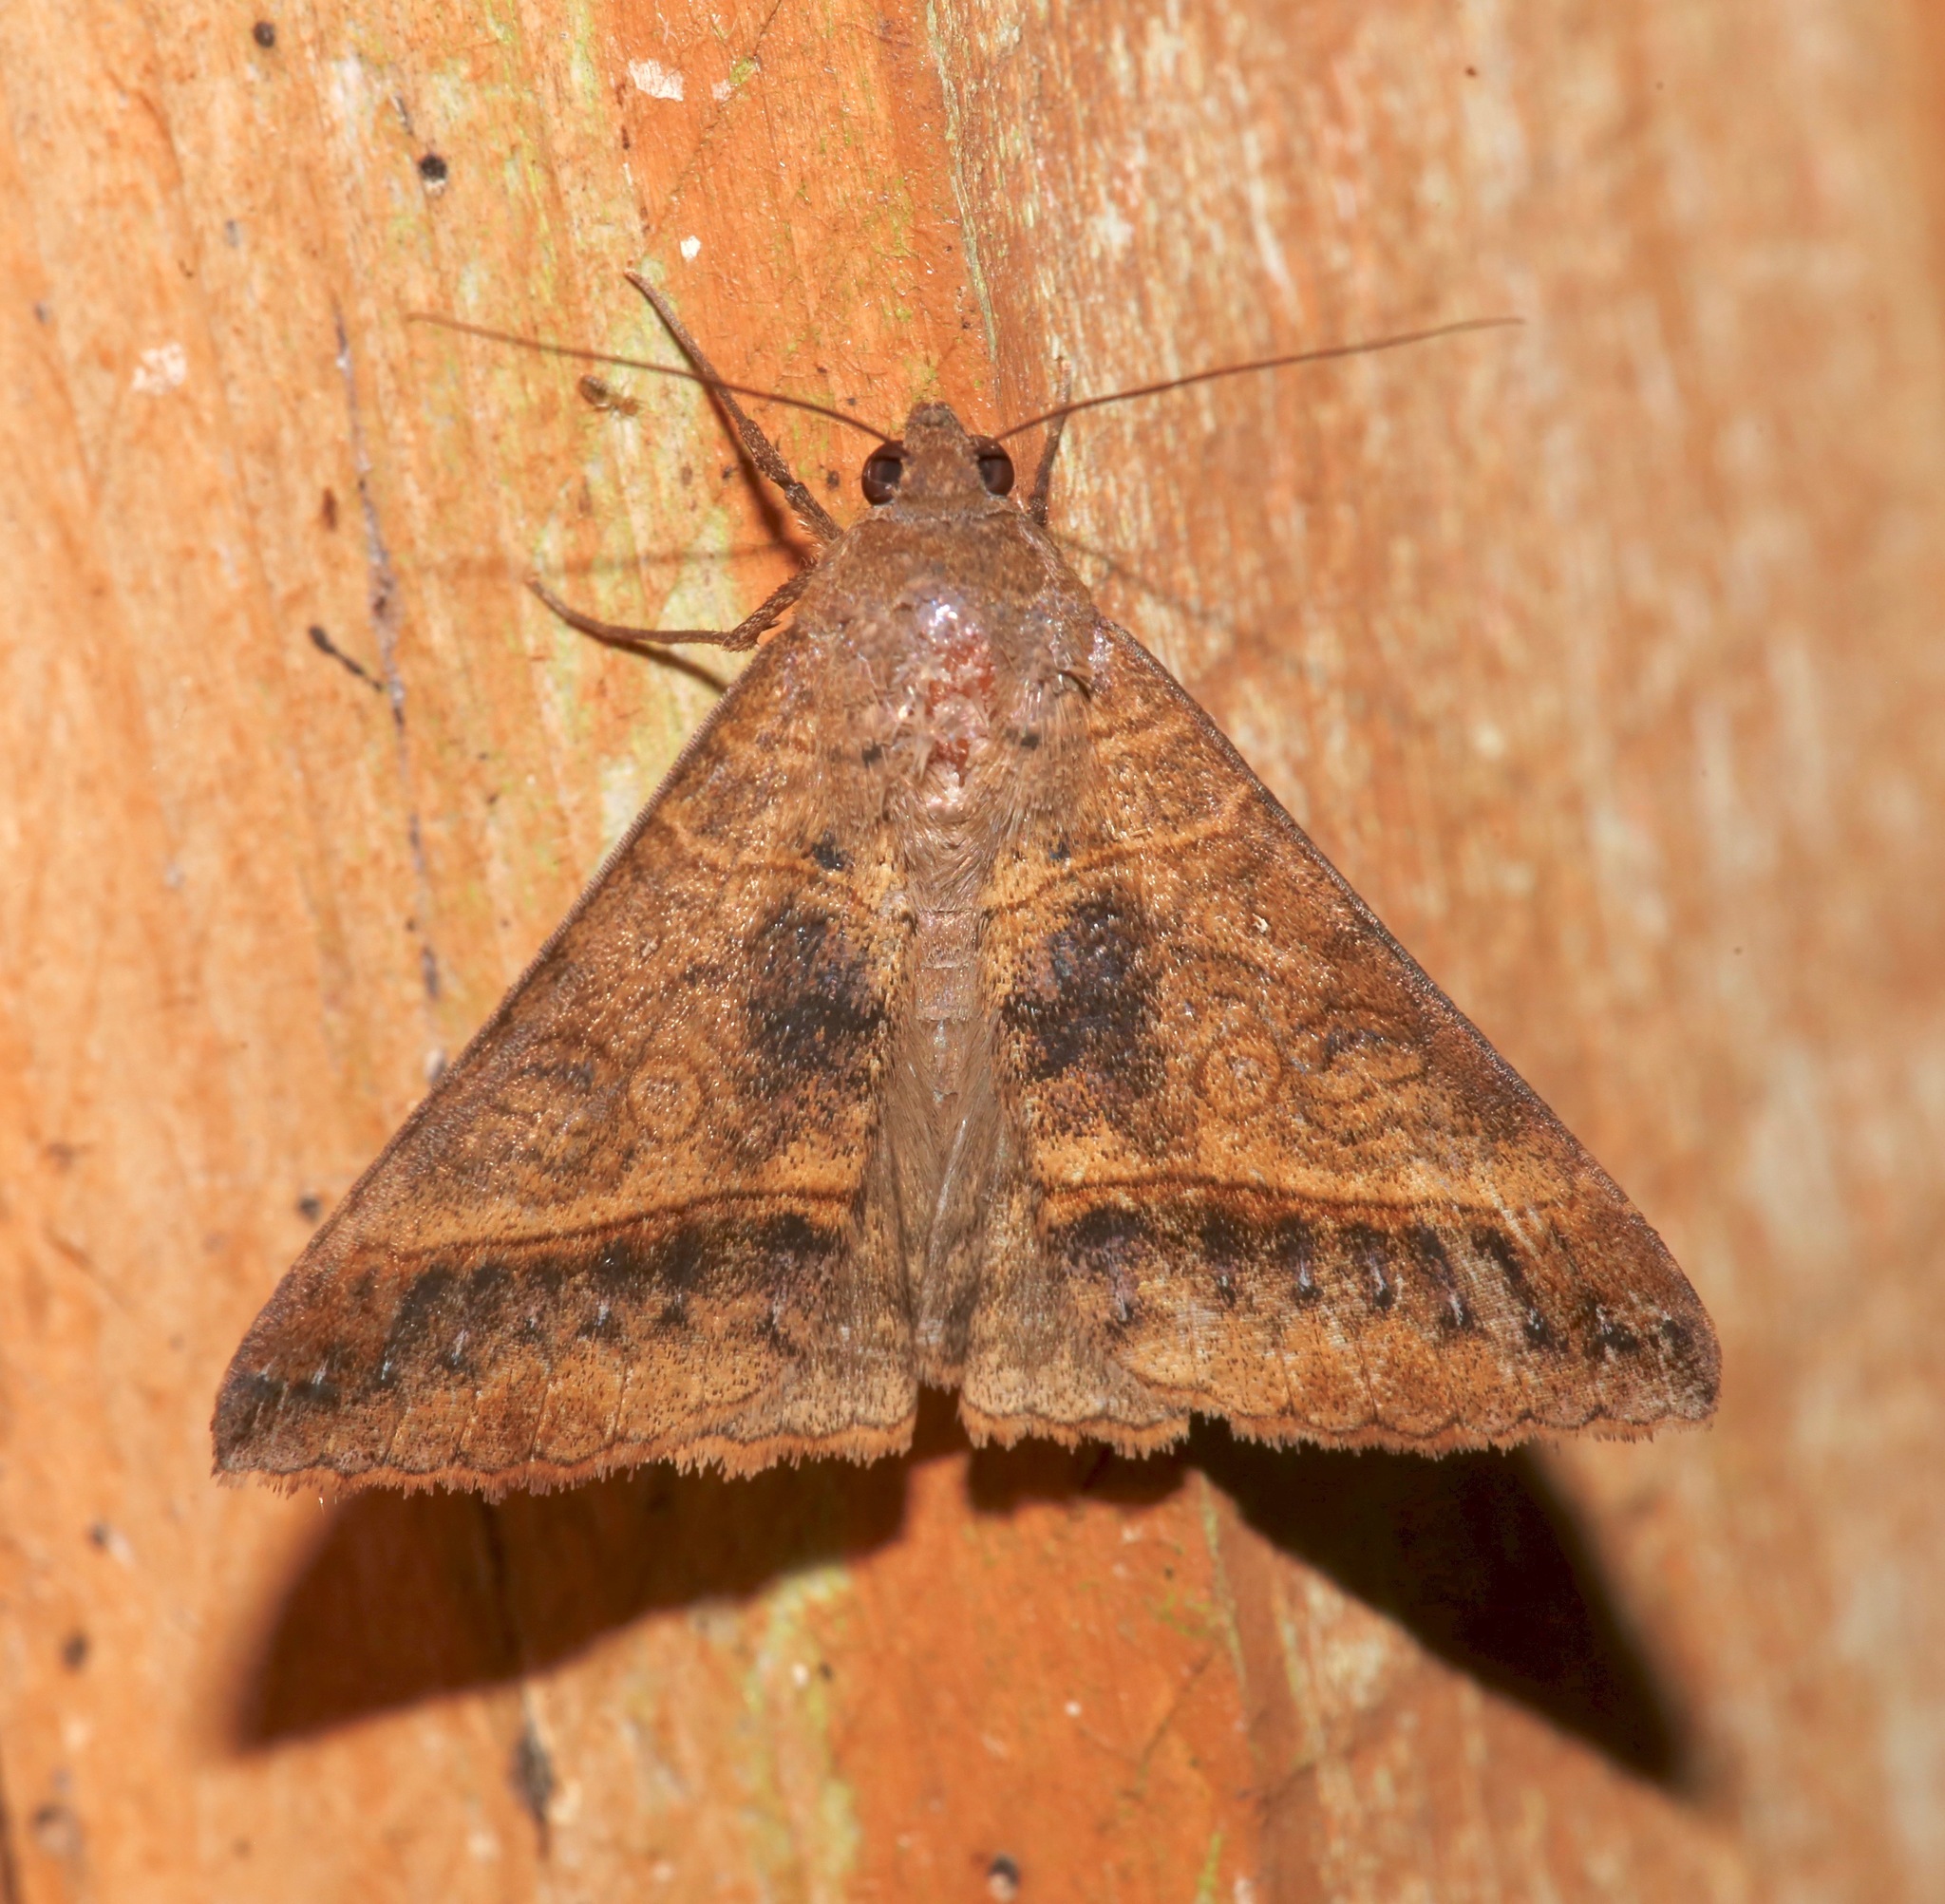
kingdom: Animalia
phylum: Arthropoda
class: Insecta
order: Lepidoptera
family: Erebidae
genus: Mocis
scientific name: Mocis latipes
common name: Striped grass looper
